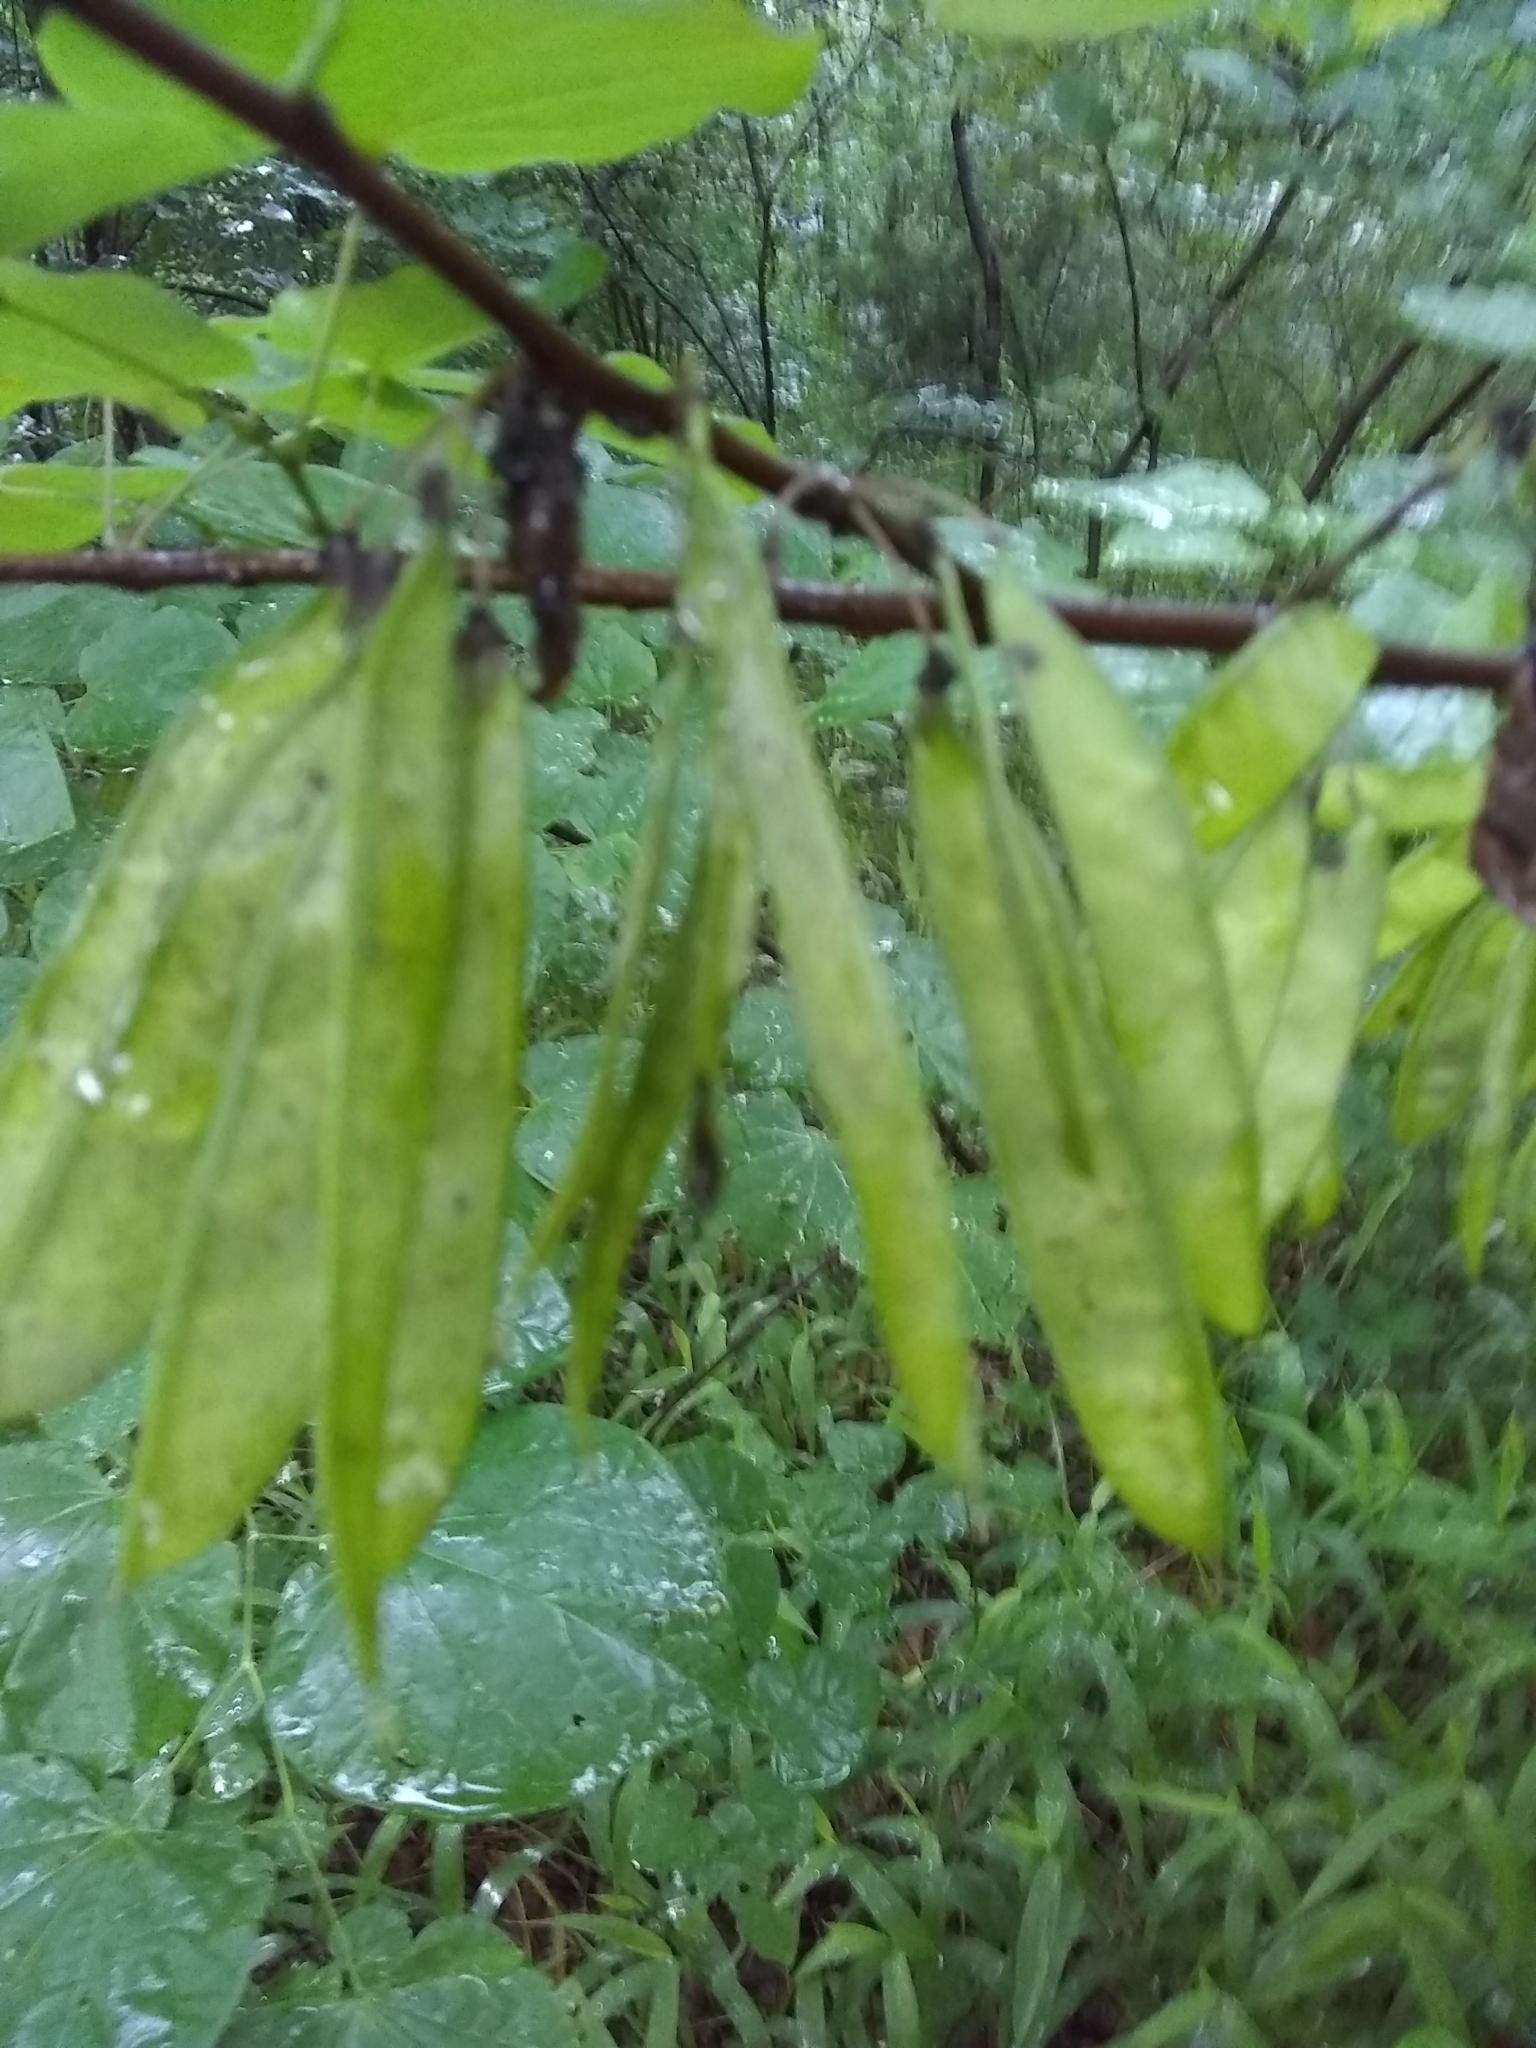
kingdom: Plantae
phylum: Tracheophyta
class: Magnoliopsida
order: Fabales
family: Fabaceae
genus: Cercis
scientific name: Cercis canadensis
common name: Eastern redbud
